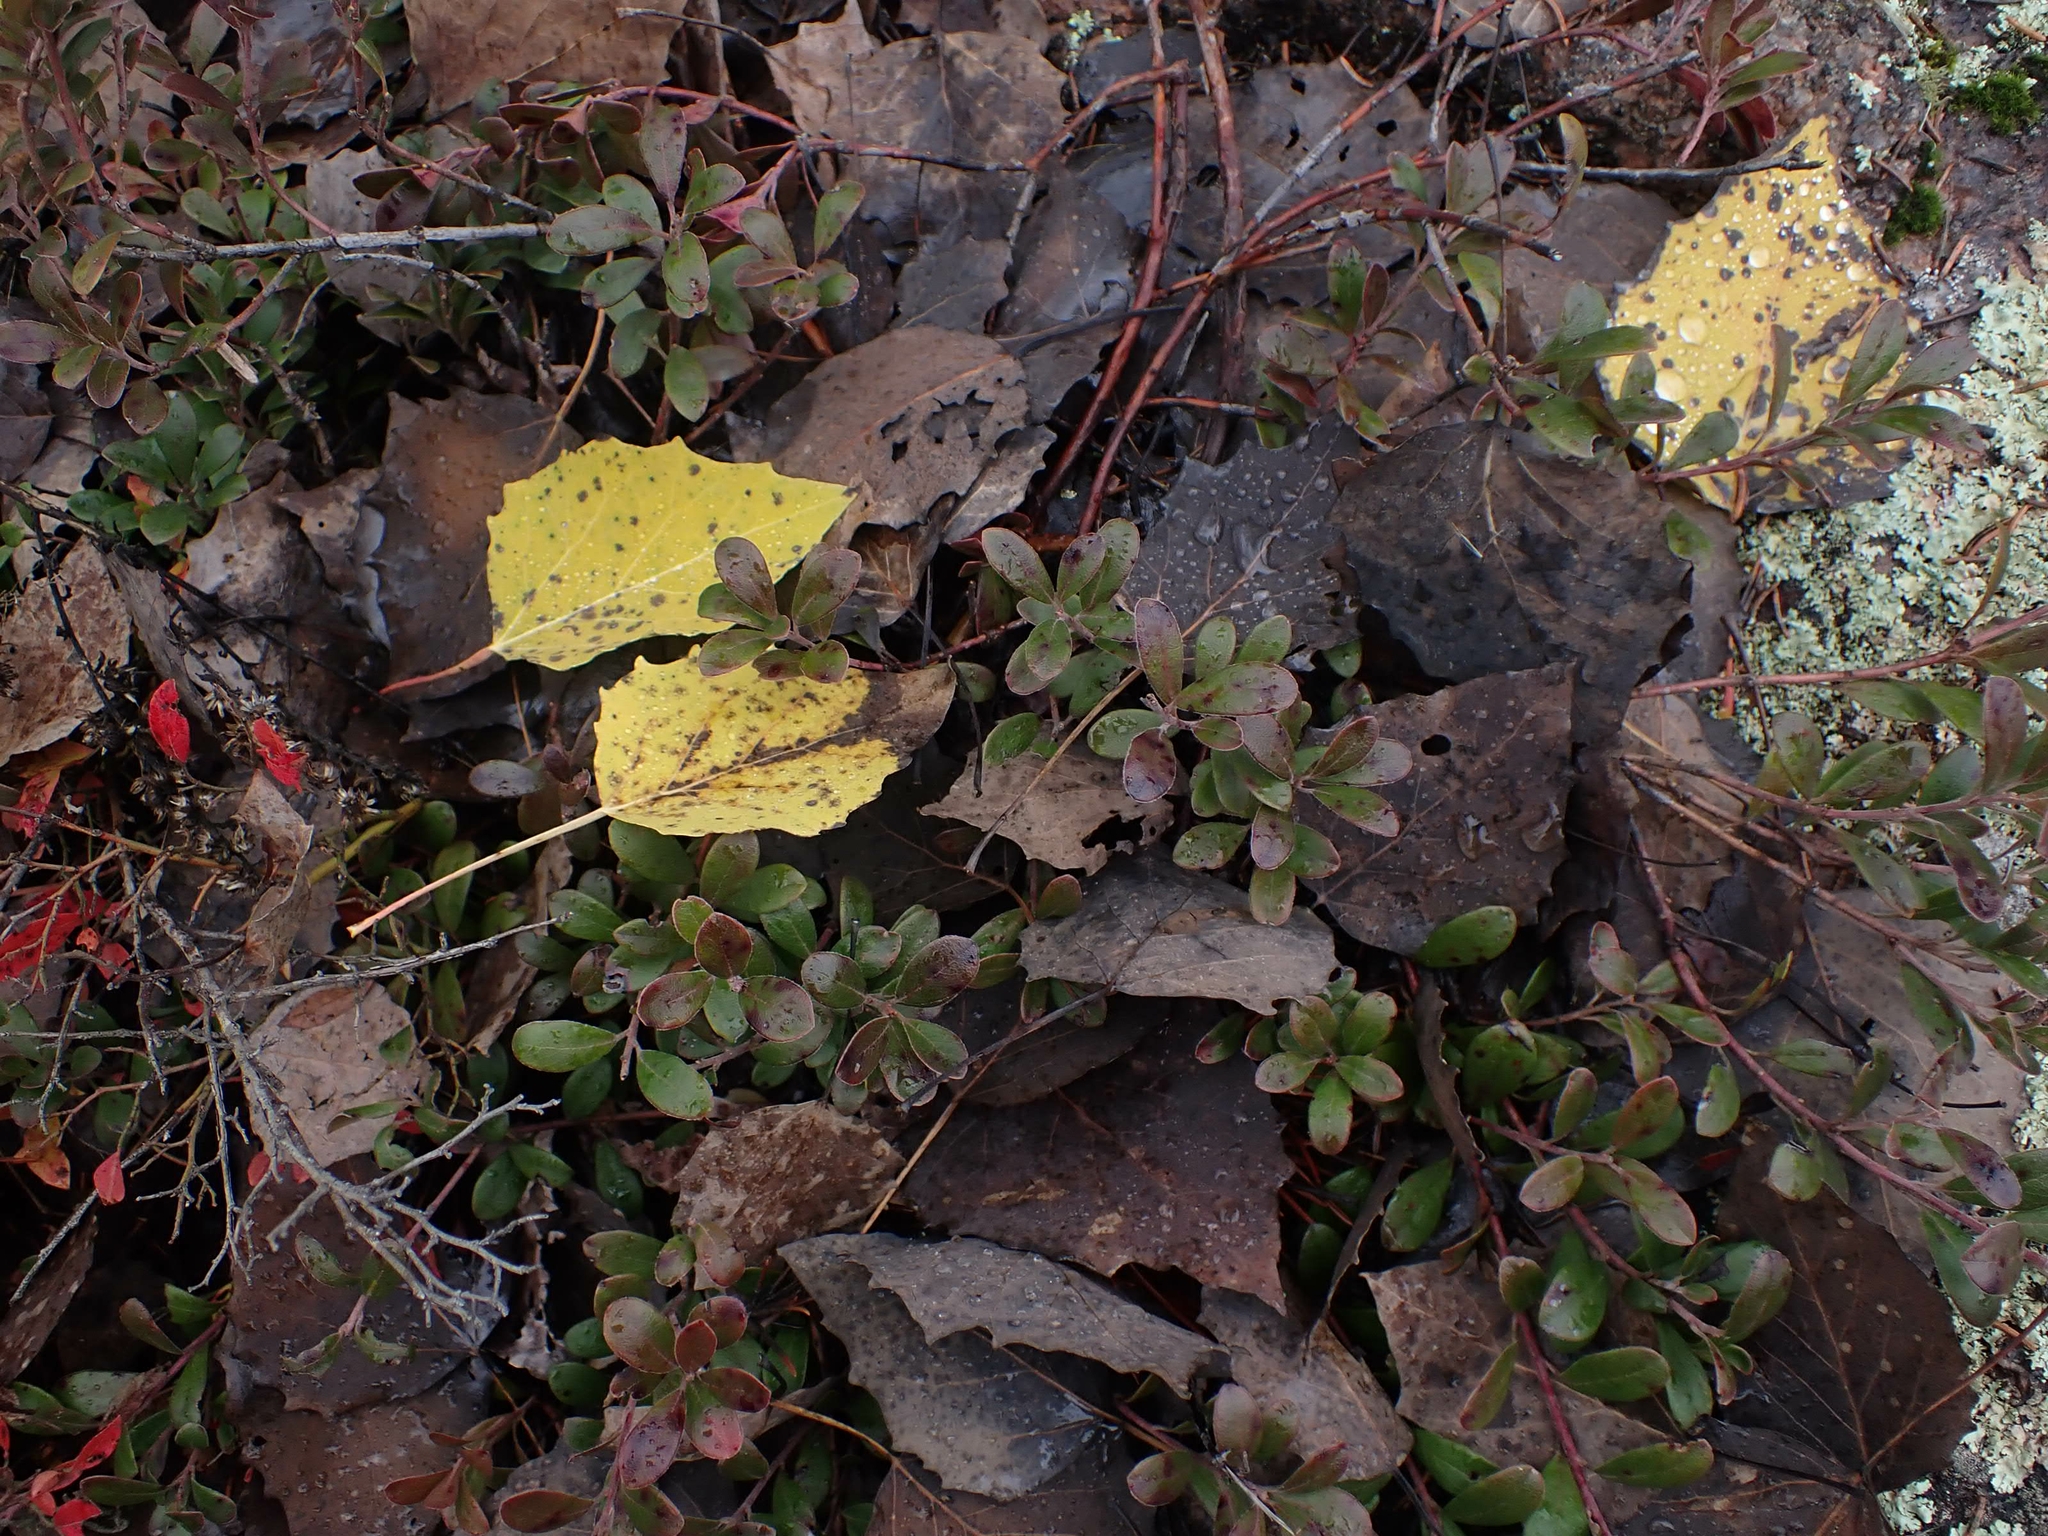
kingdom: Plantae
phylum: Tracheophyta
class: Magnoliopsida
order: Ericales
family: Ericaceae
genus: Arctostaphylos
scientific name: Arctostaphylos uva-ursi
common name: Bearberry
